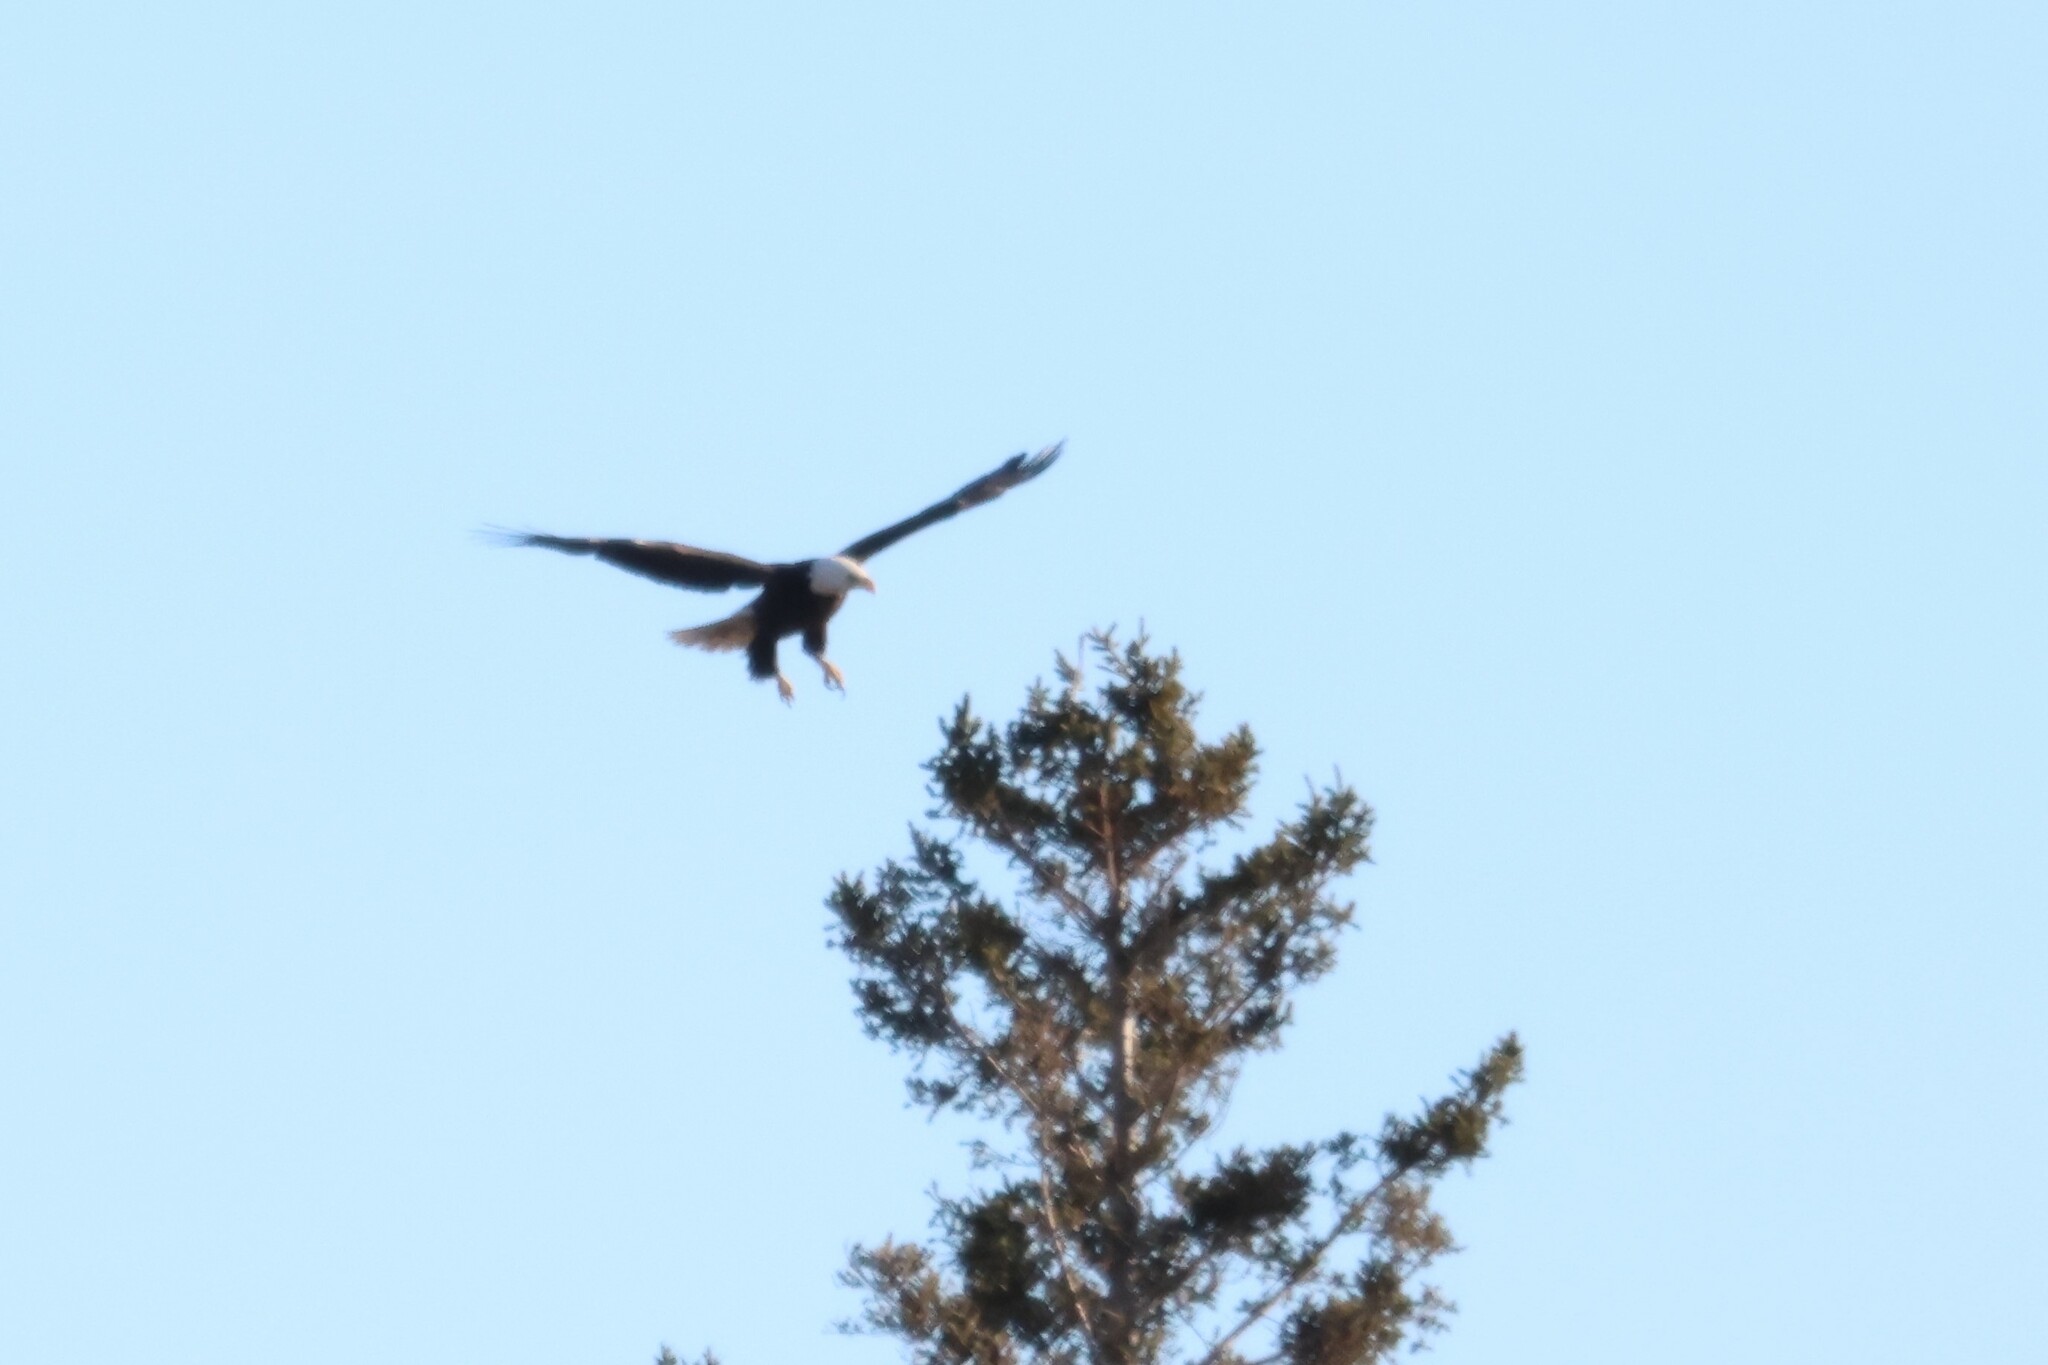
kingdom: Animalia
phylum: Chordata
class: Aves
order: Accipitriformes
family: Accipitridae
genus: Haliaeetus
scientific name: Haliaeetus leucocephalus
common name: Bald eagle
